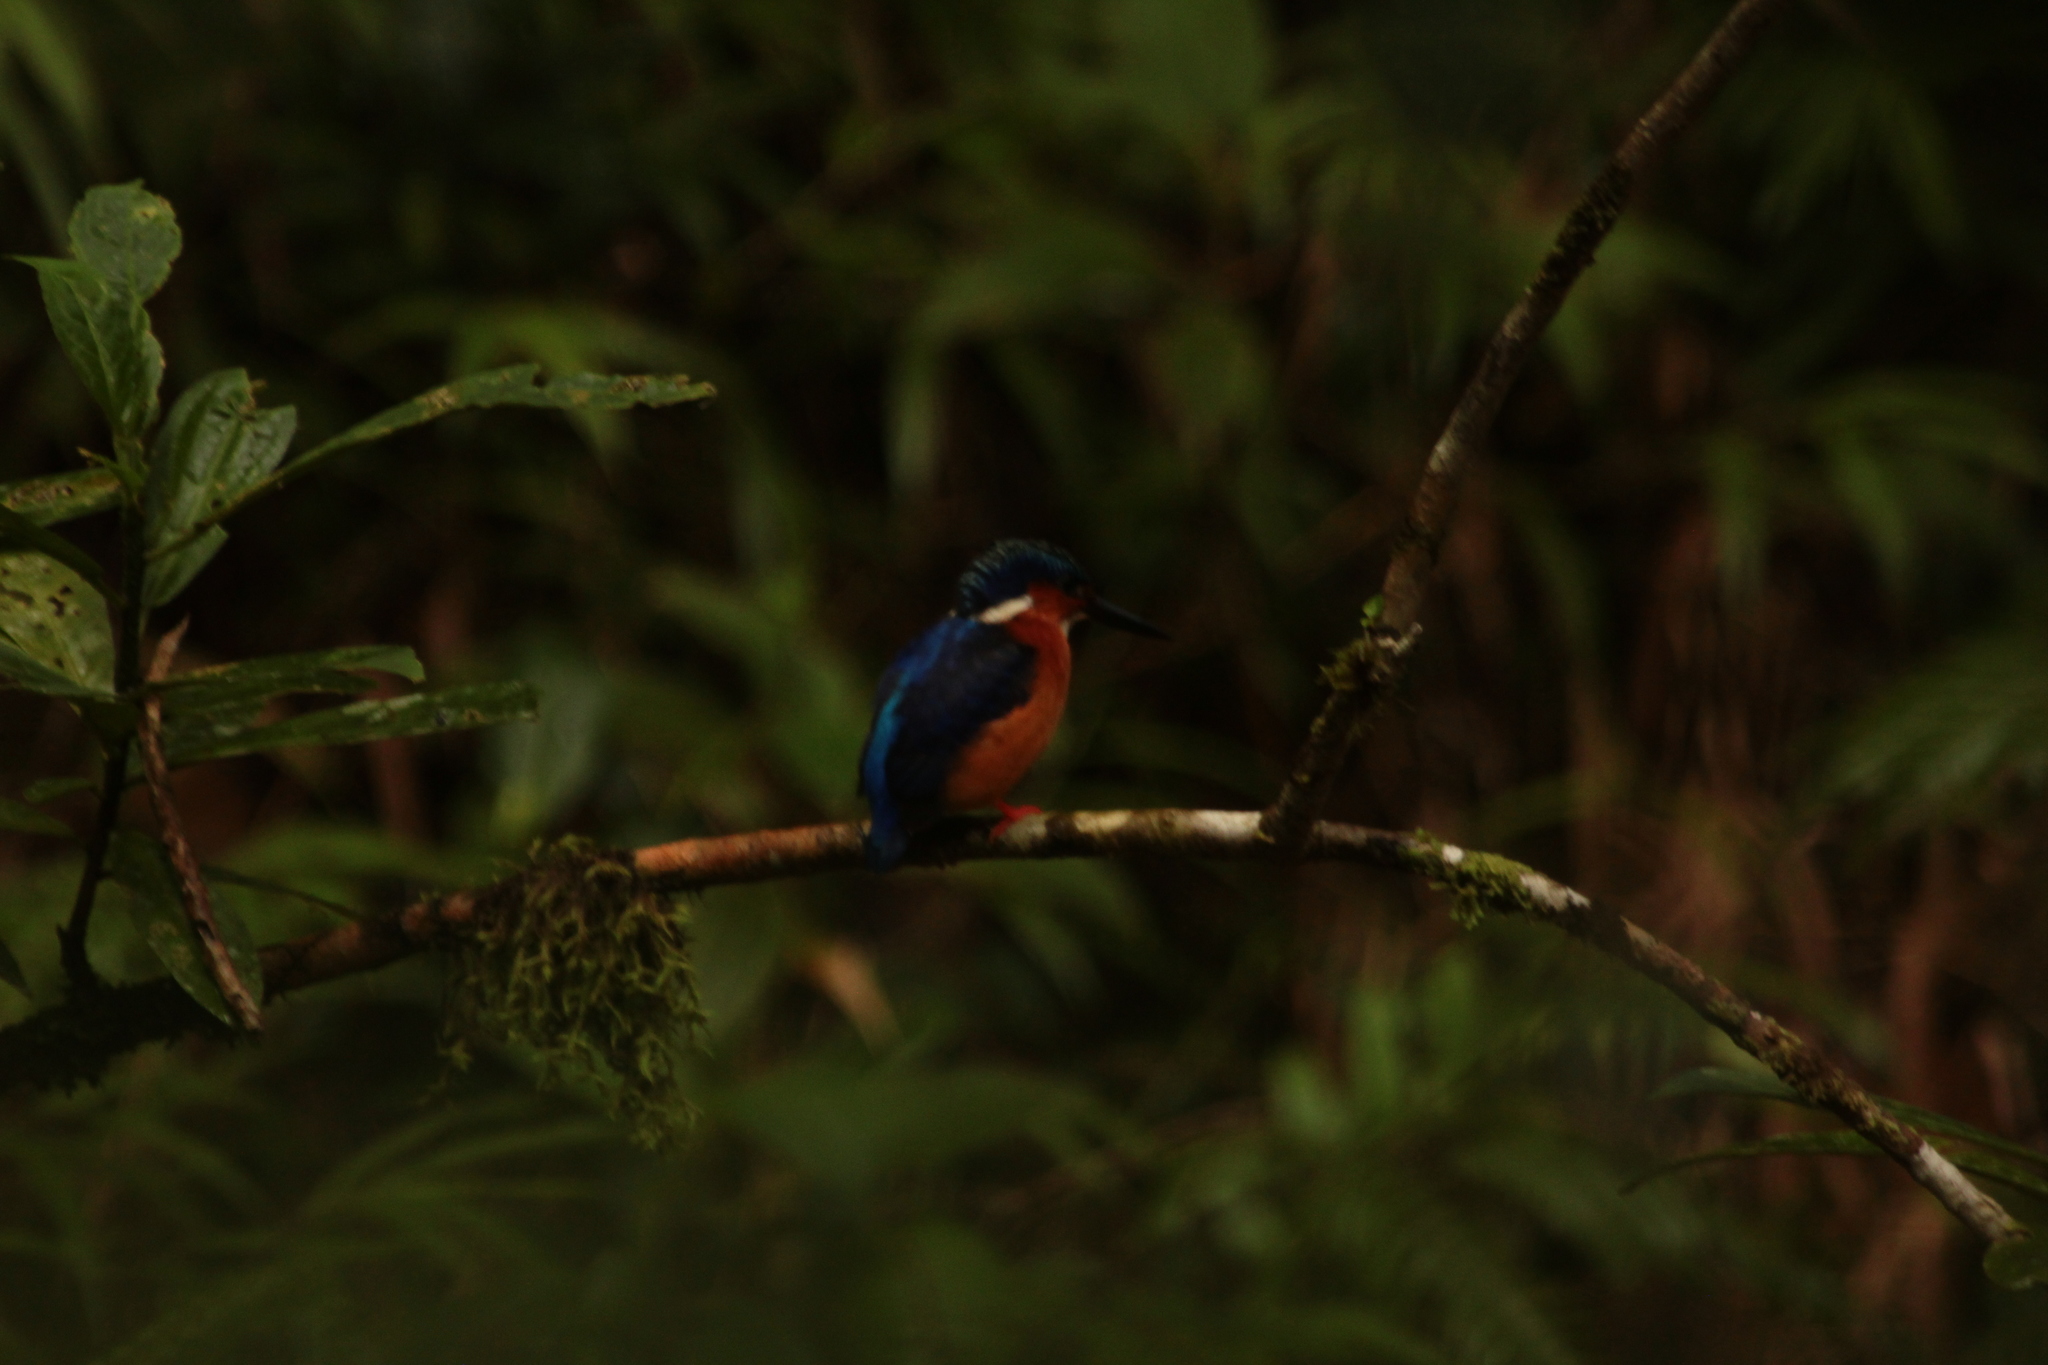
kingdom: Animalia
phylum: Chordata
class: Aves
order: Coraciiformes
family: Alcedinidae
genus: Corythornis
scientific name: Corythornis vintsioides
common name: Malagasy kingfisher
